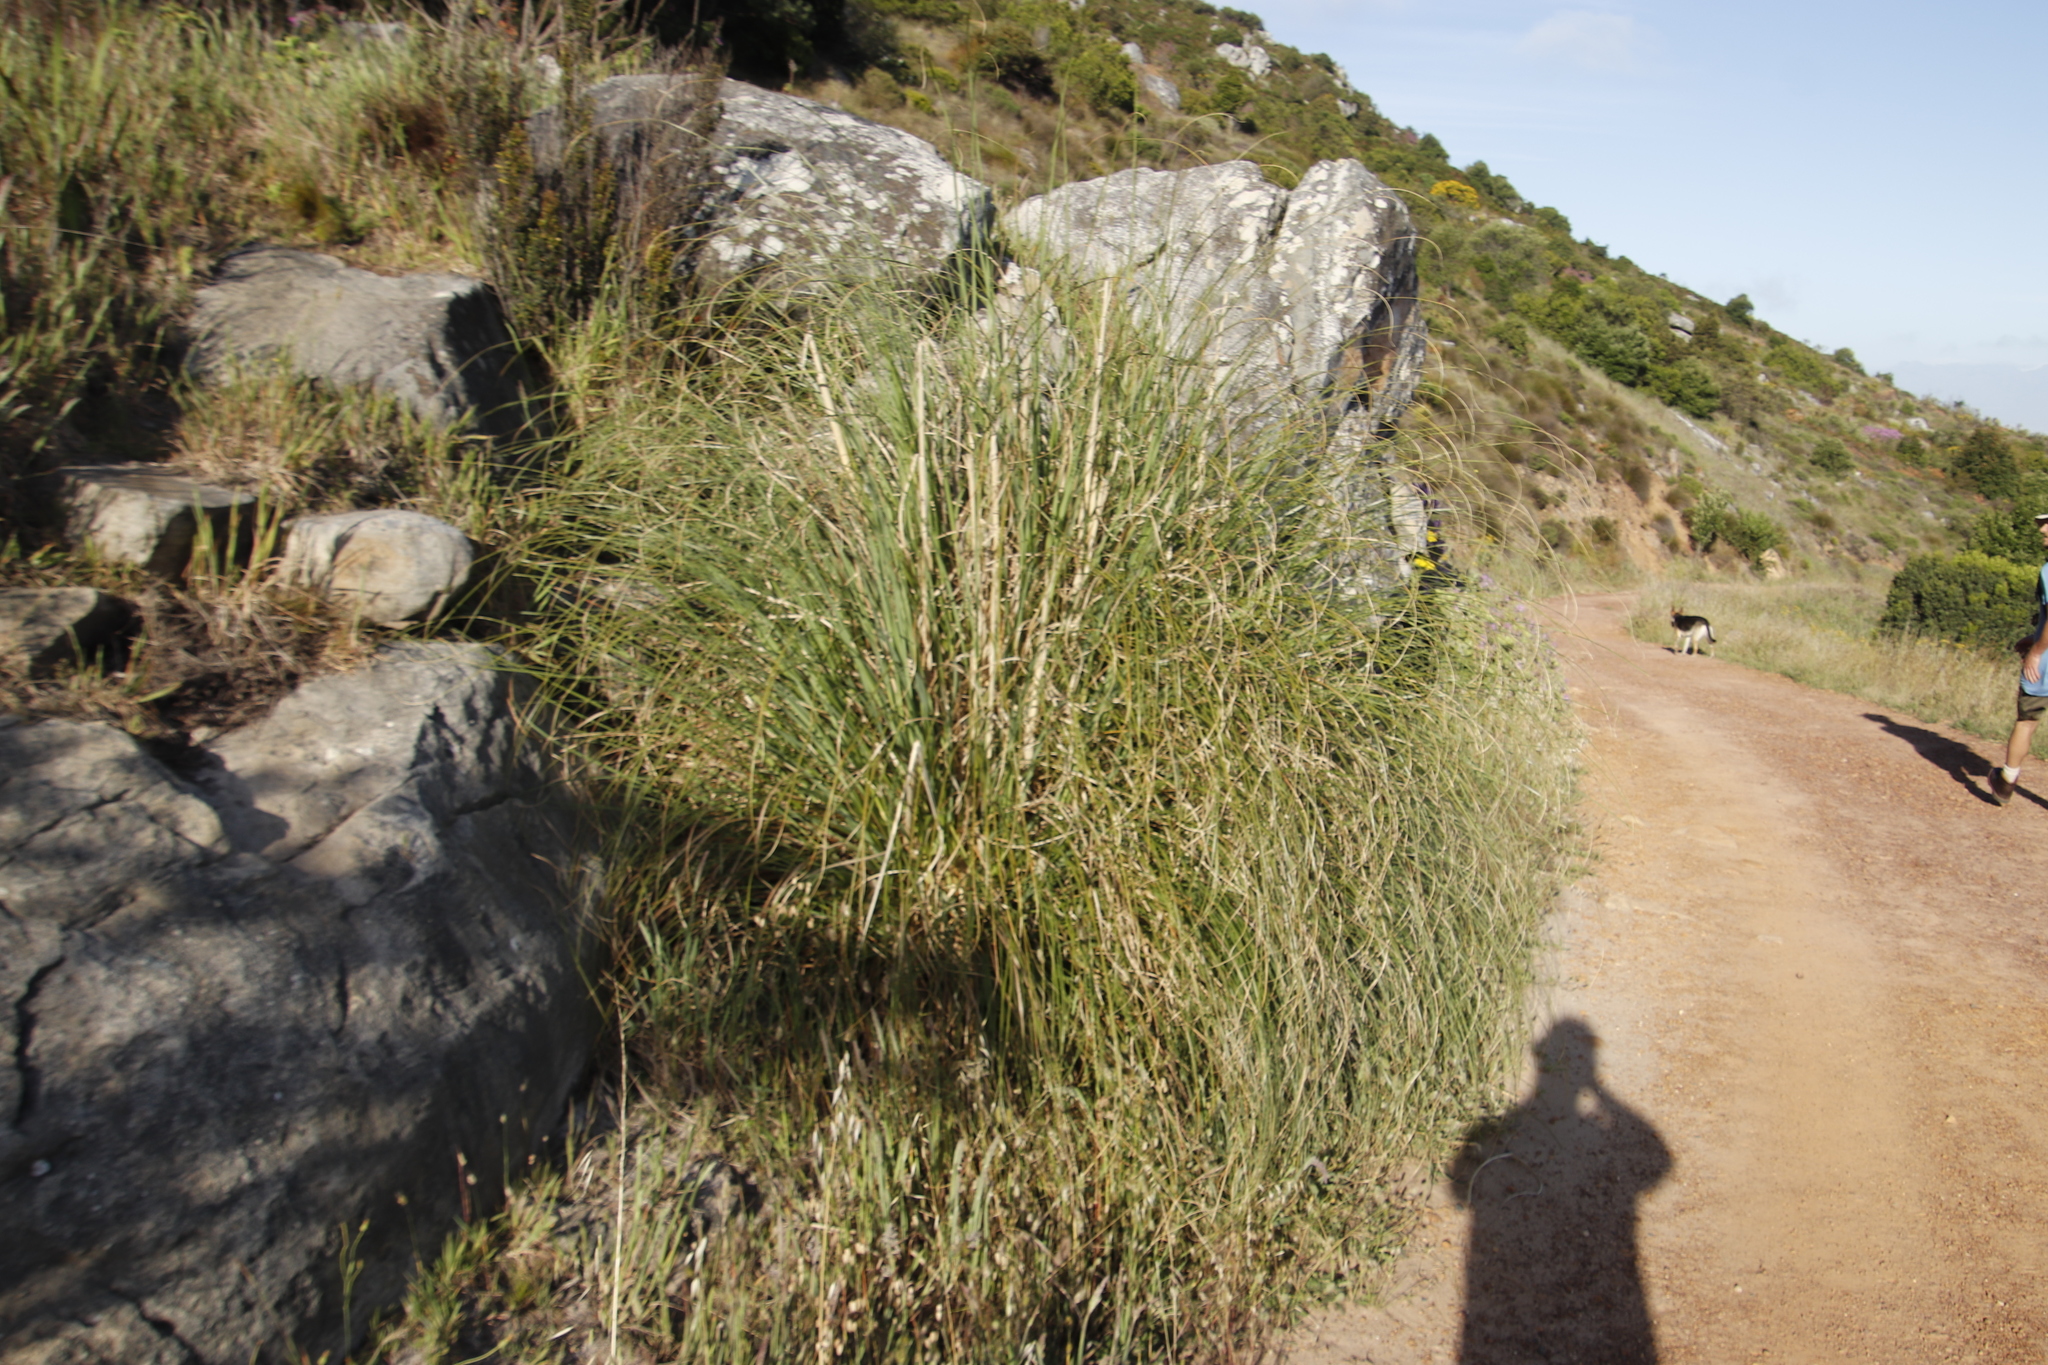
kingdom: Plantae
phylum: Tracheophyta
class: Liliopsida
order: Poales
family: Poaceae
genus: Cortaderia
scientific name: Cortaderia selloana
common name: Uruguayan pampas grass
